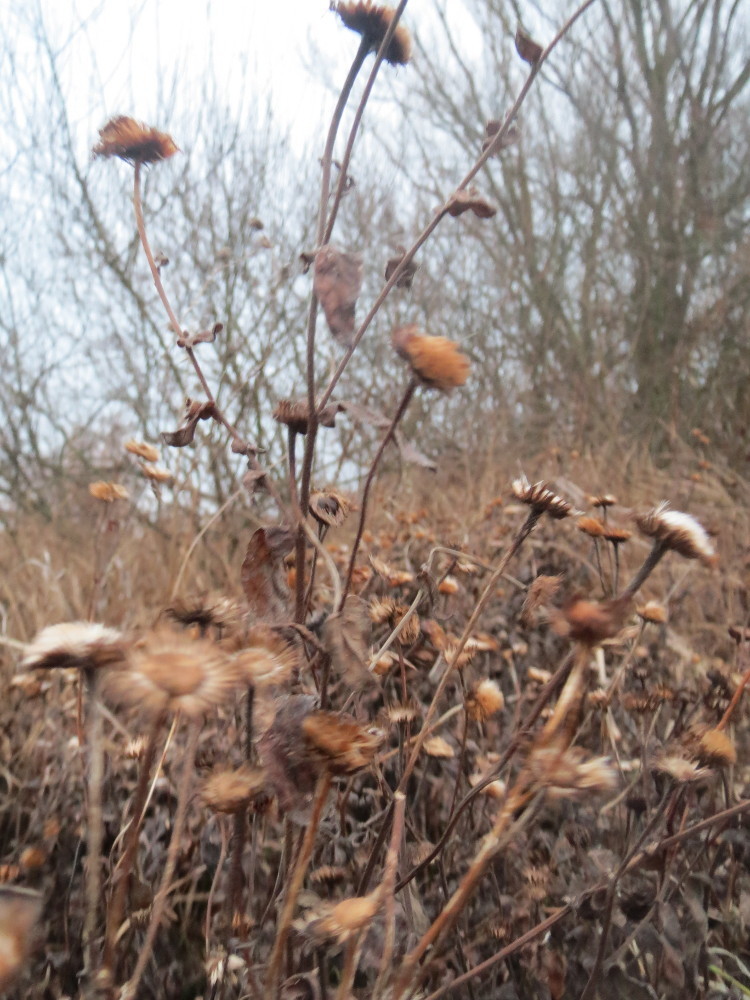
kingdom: Plantae
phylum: Tracheophyta
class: Magnoliopsida
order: Asterales
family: Asteraceae
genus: Pulicaria
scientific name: Pulicaria dysenterica
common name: Common fleabane
